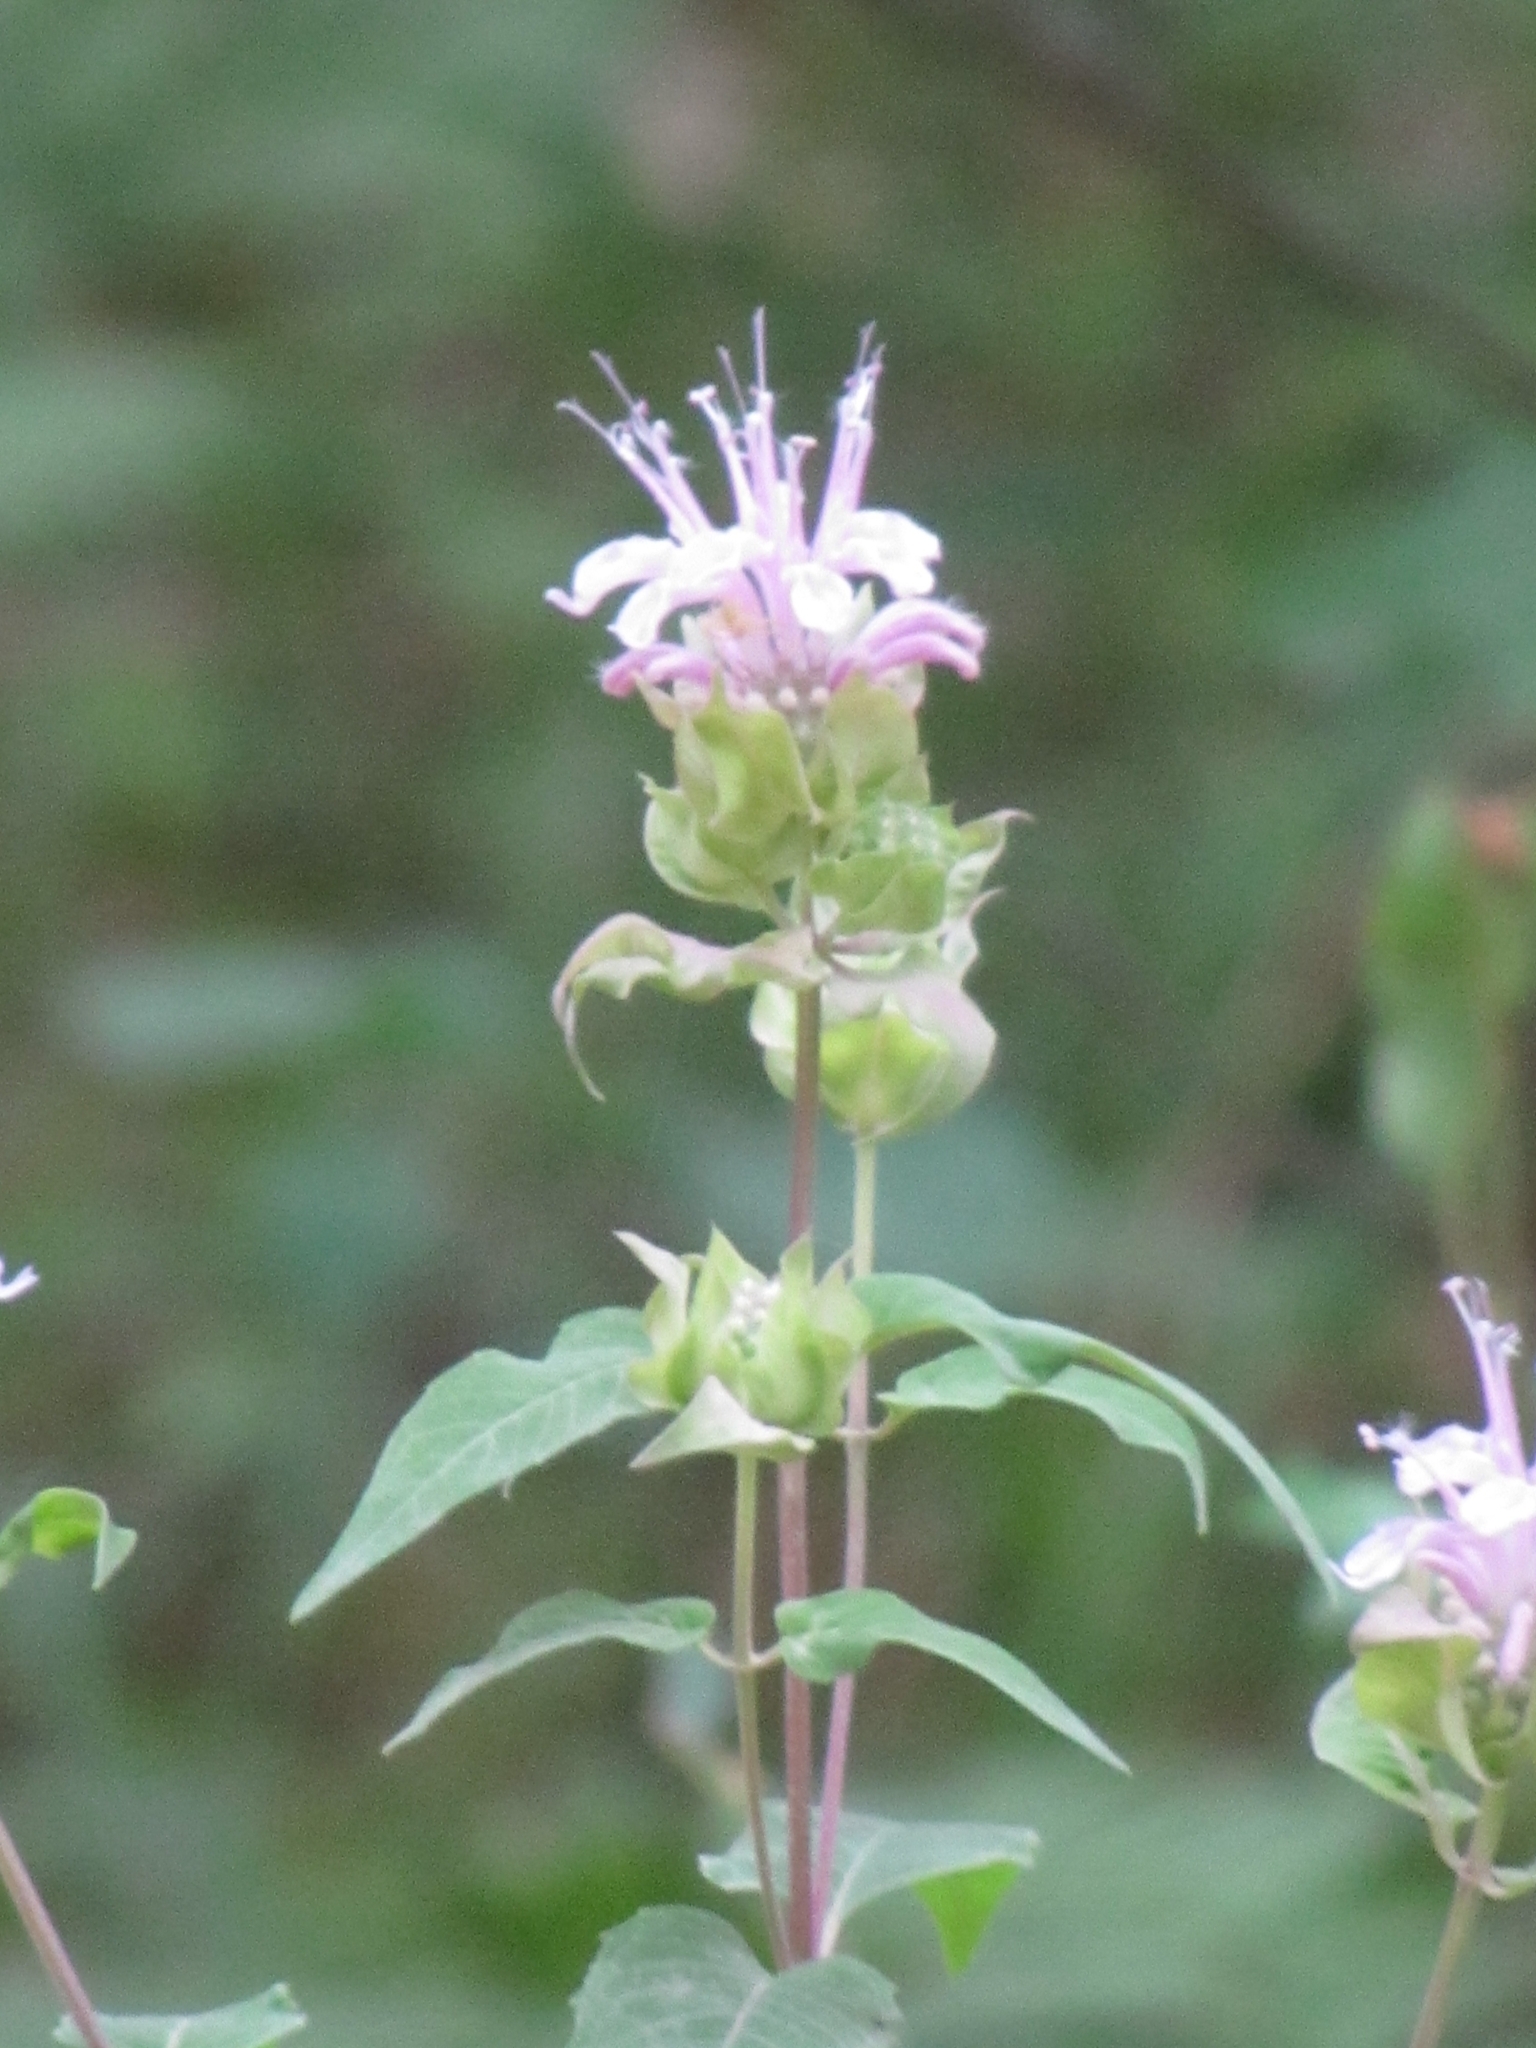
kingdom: Plantae
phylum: Tracheophyta
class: Magnoliopsida
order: Lamiales
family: Lamiaceae
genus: Monarda
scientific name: Monarda fistulosa
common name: Purple beebalm
